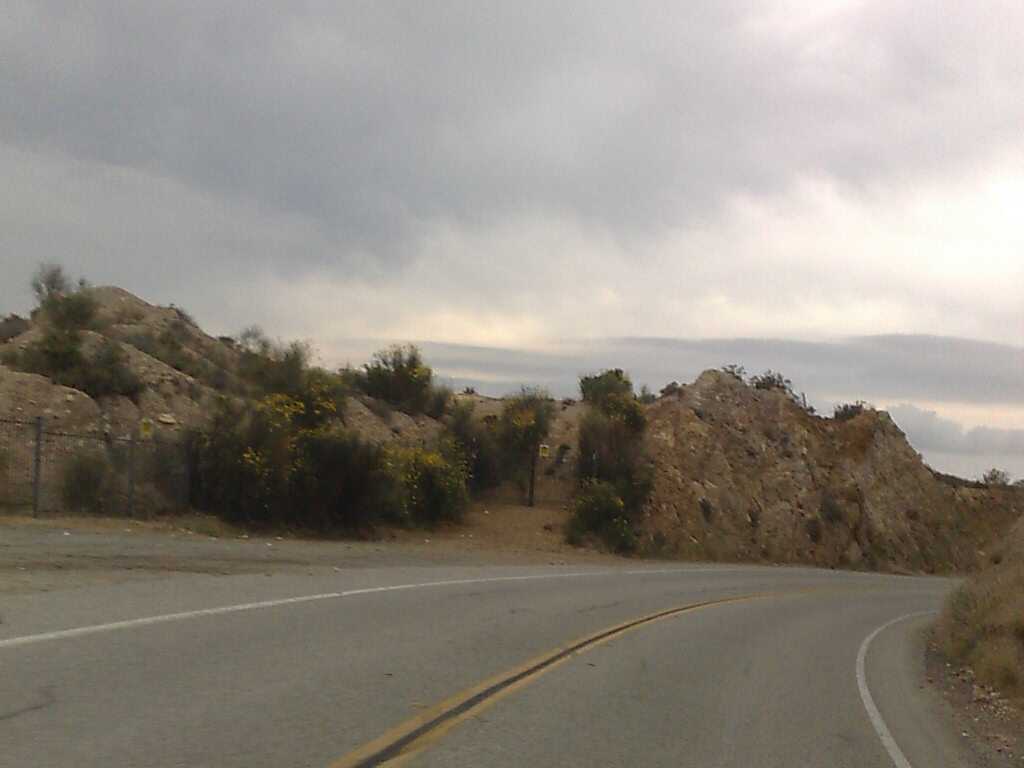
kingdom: Plantae
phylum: Tracheophyta
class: Magnoliopsida
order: Fabales
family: Fabaceae
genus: Spartium
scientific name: Spartium junceum
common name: Spanish broom
